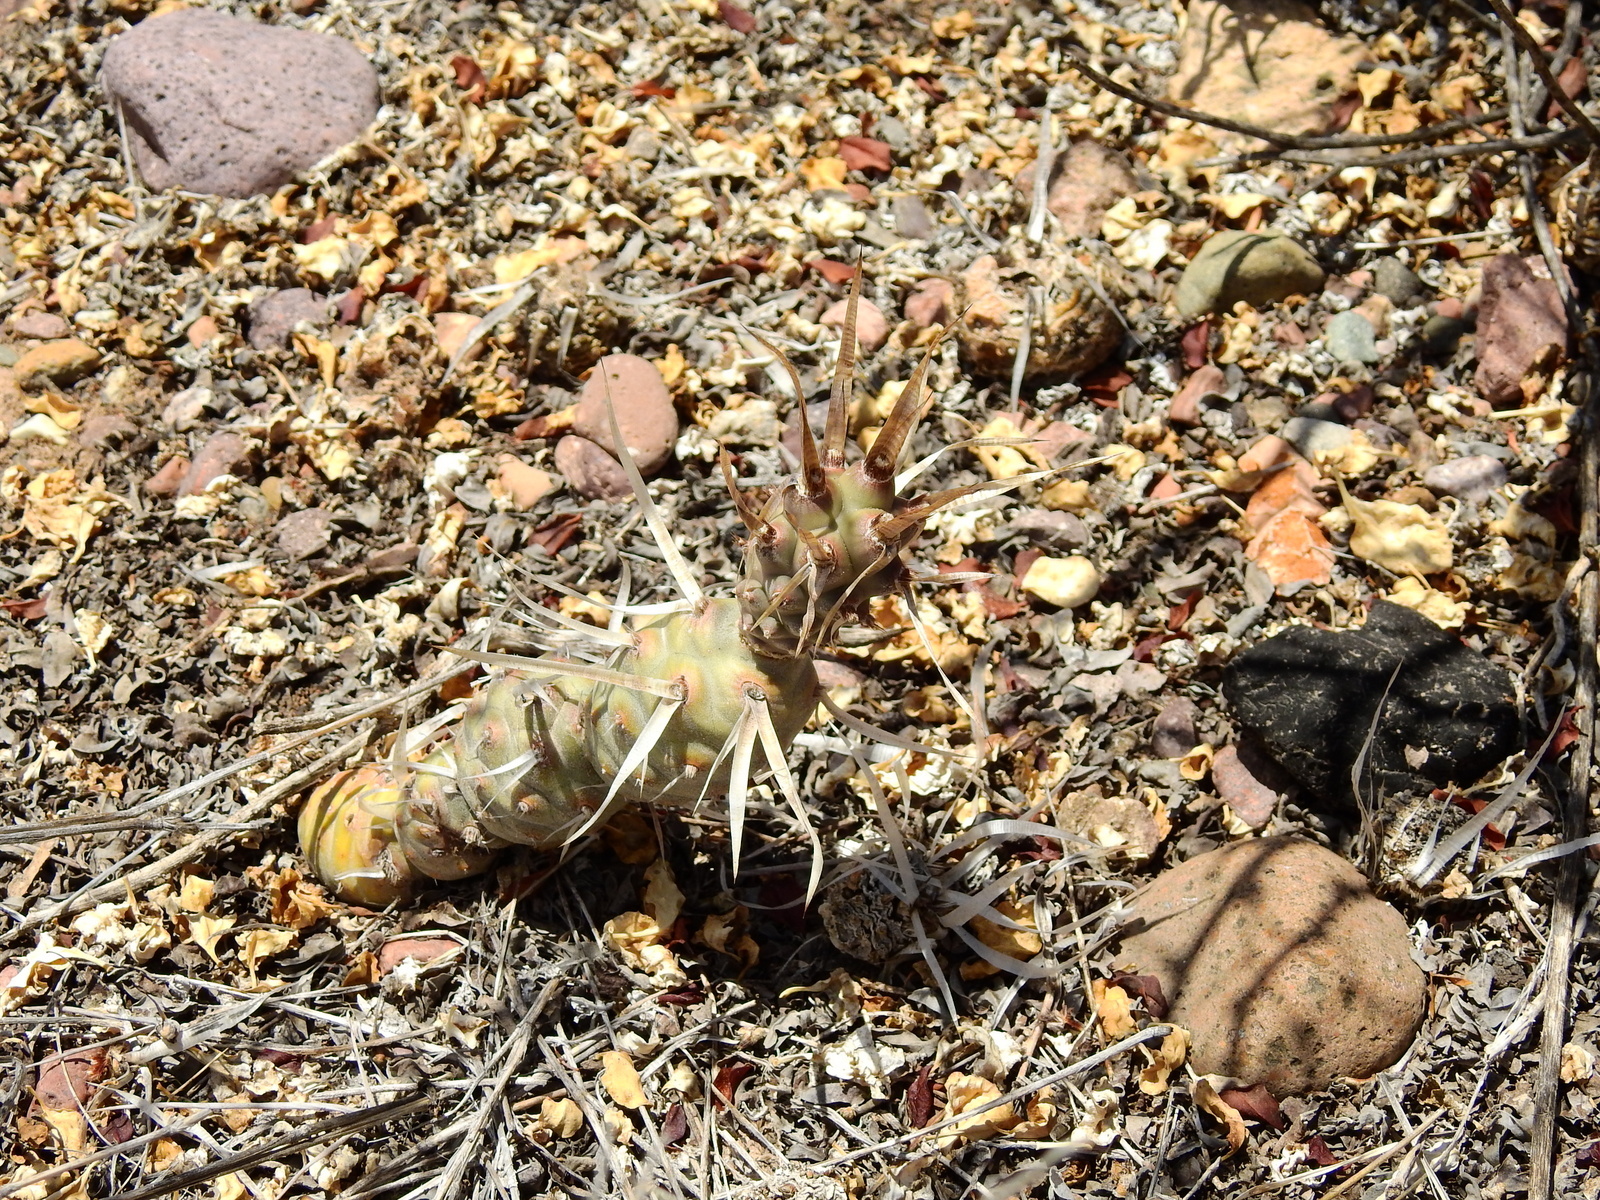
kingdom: Plantae
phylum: Tracheophyta
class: Magnoliopsida
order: Caryophyllales
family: Cactaceae
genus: Tephrocactus
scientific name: Tephrocactus articulatus
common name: Paper cactus
